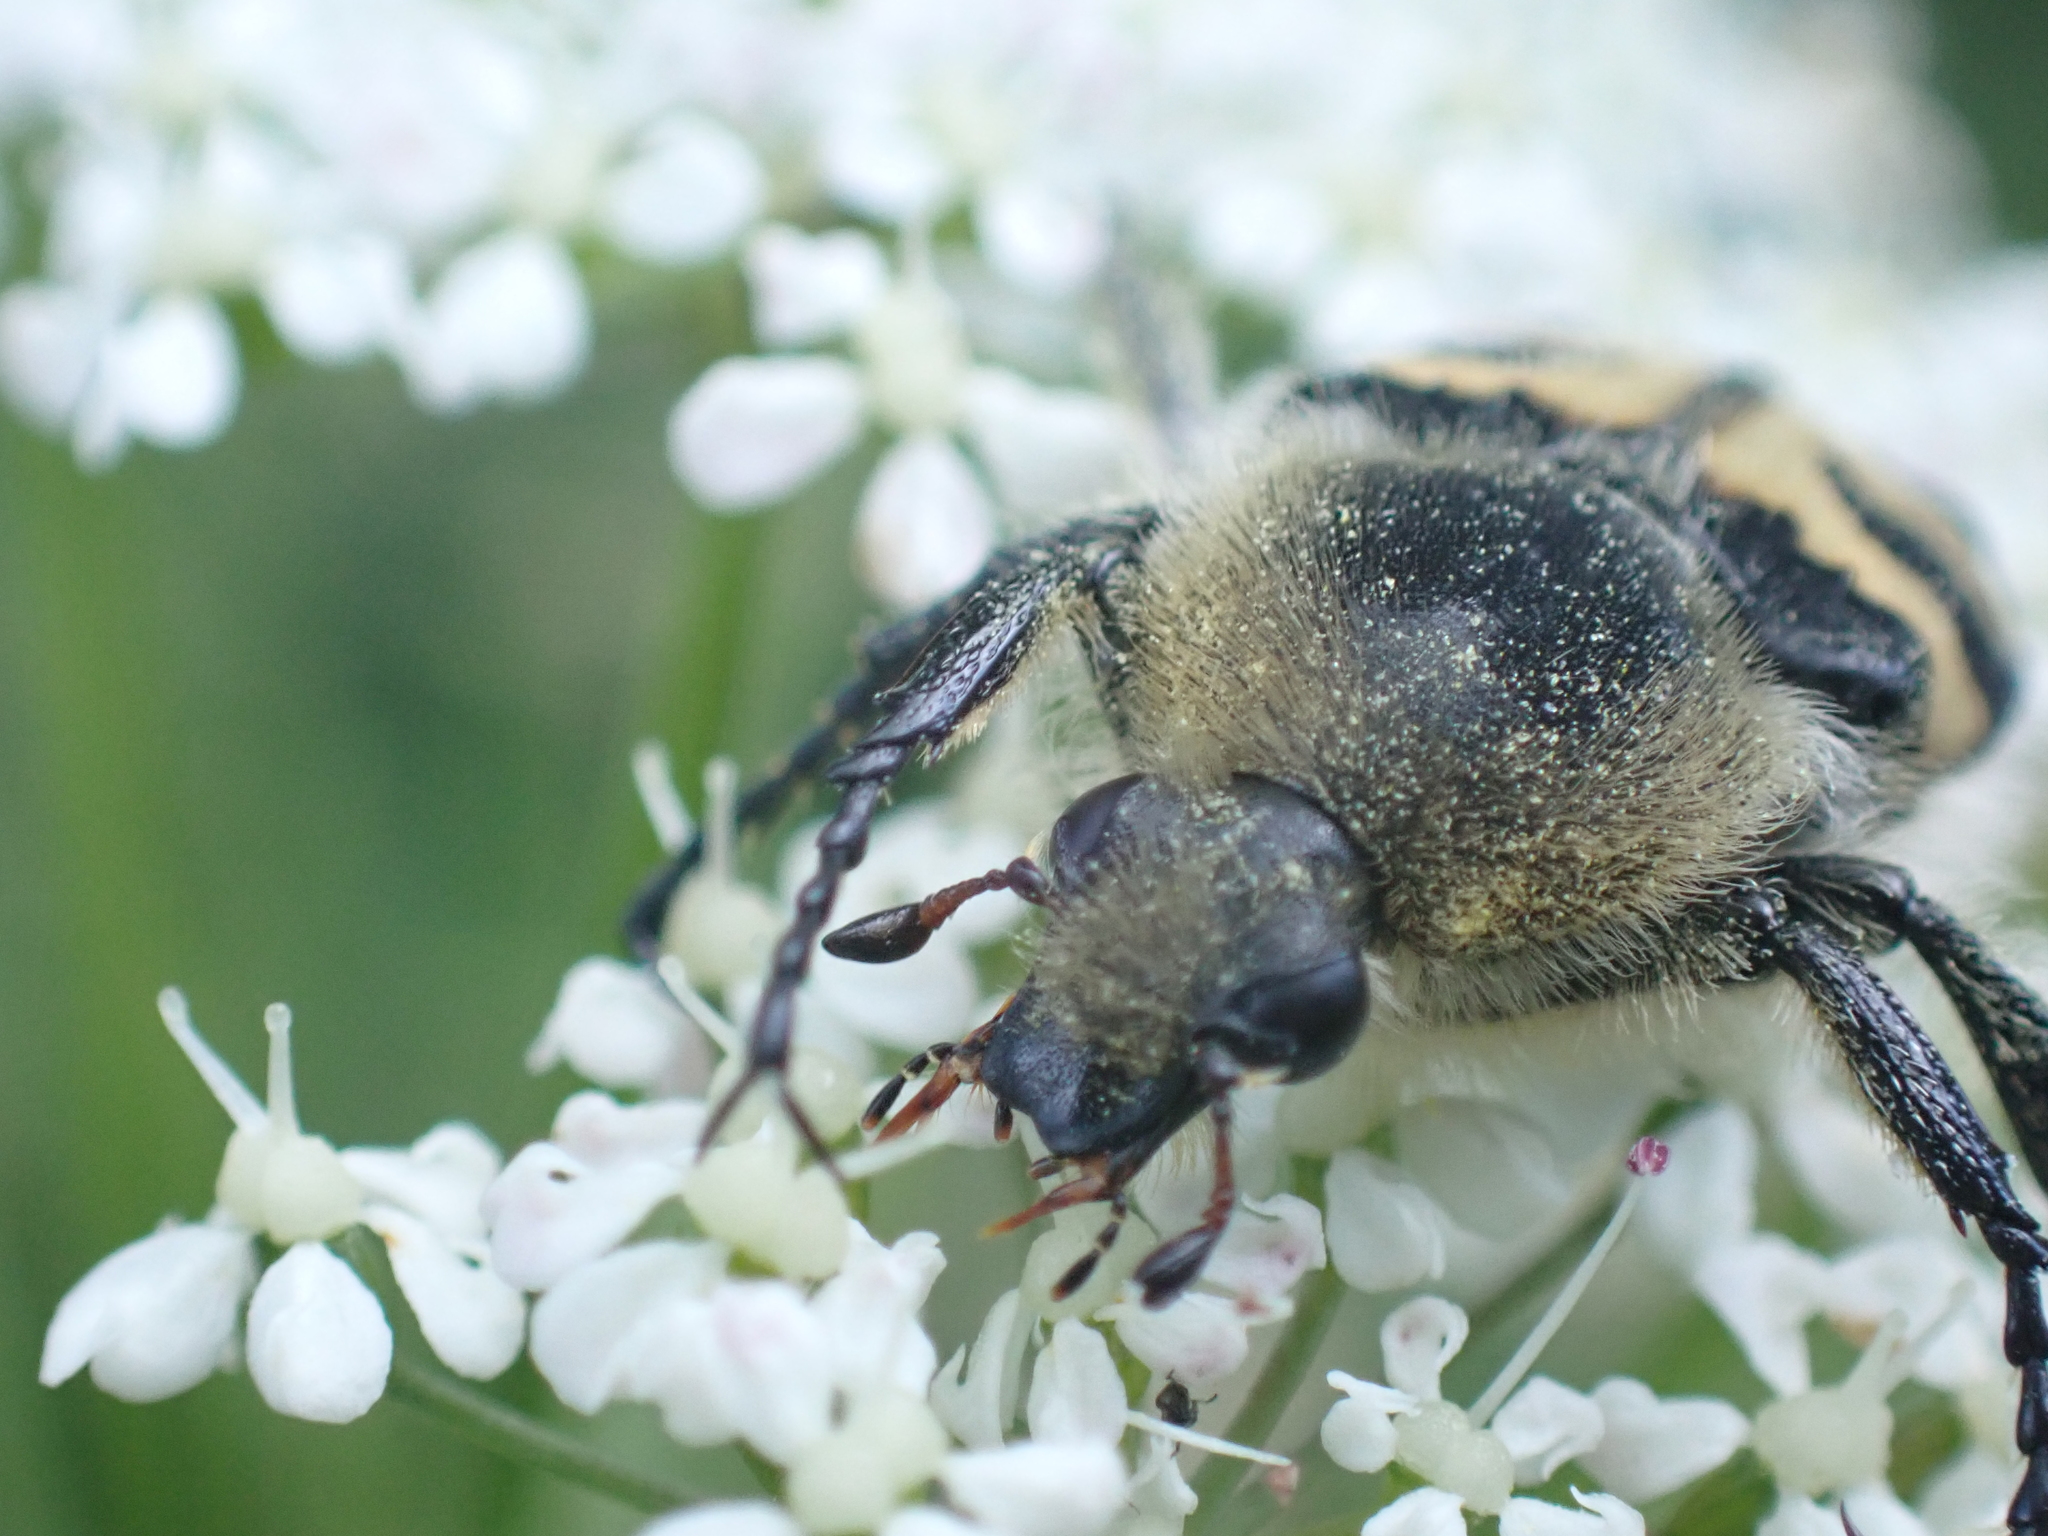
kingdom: Animalia
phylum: Arthropoda
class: Insecta
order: Coleoptera
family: Scarabaeidae
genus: Trichius
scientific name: Trichius fasciatus
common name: Bee beetle
